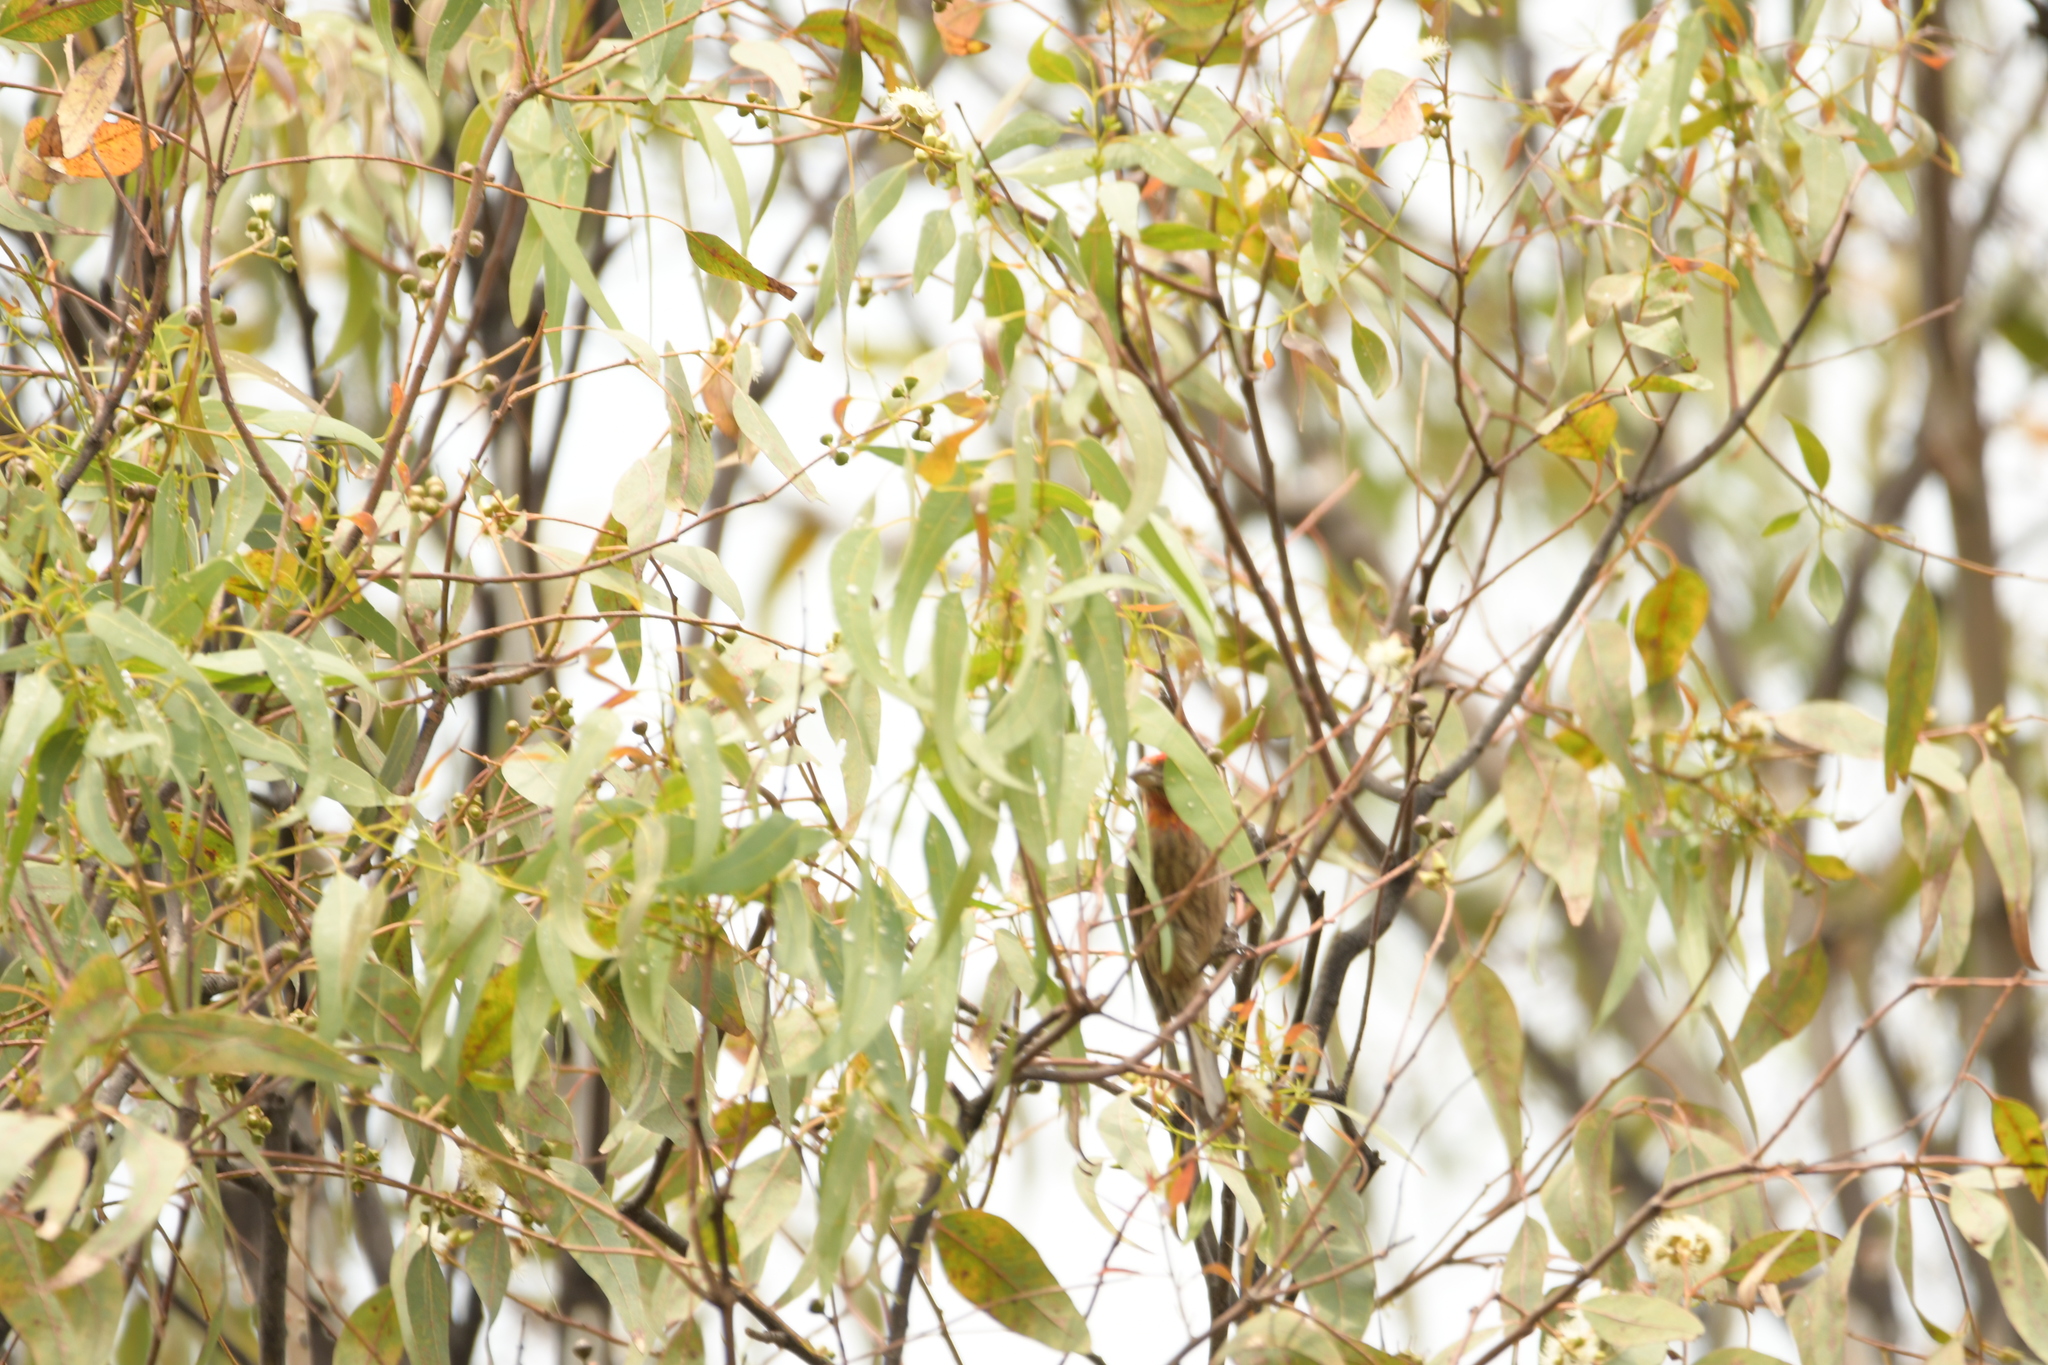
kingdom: Animalia
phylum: Chordata
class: Aves
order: Passeriformes
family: Fringillidae
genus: Haemorhous
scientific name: Haemorhous mexicanus
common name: House finch
